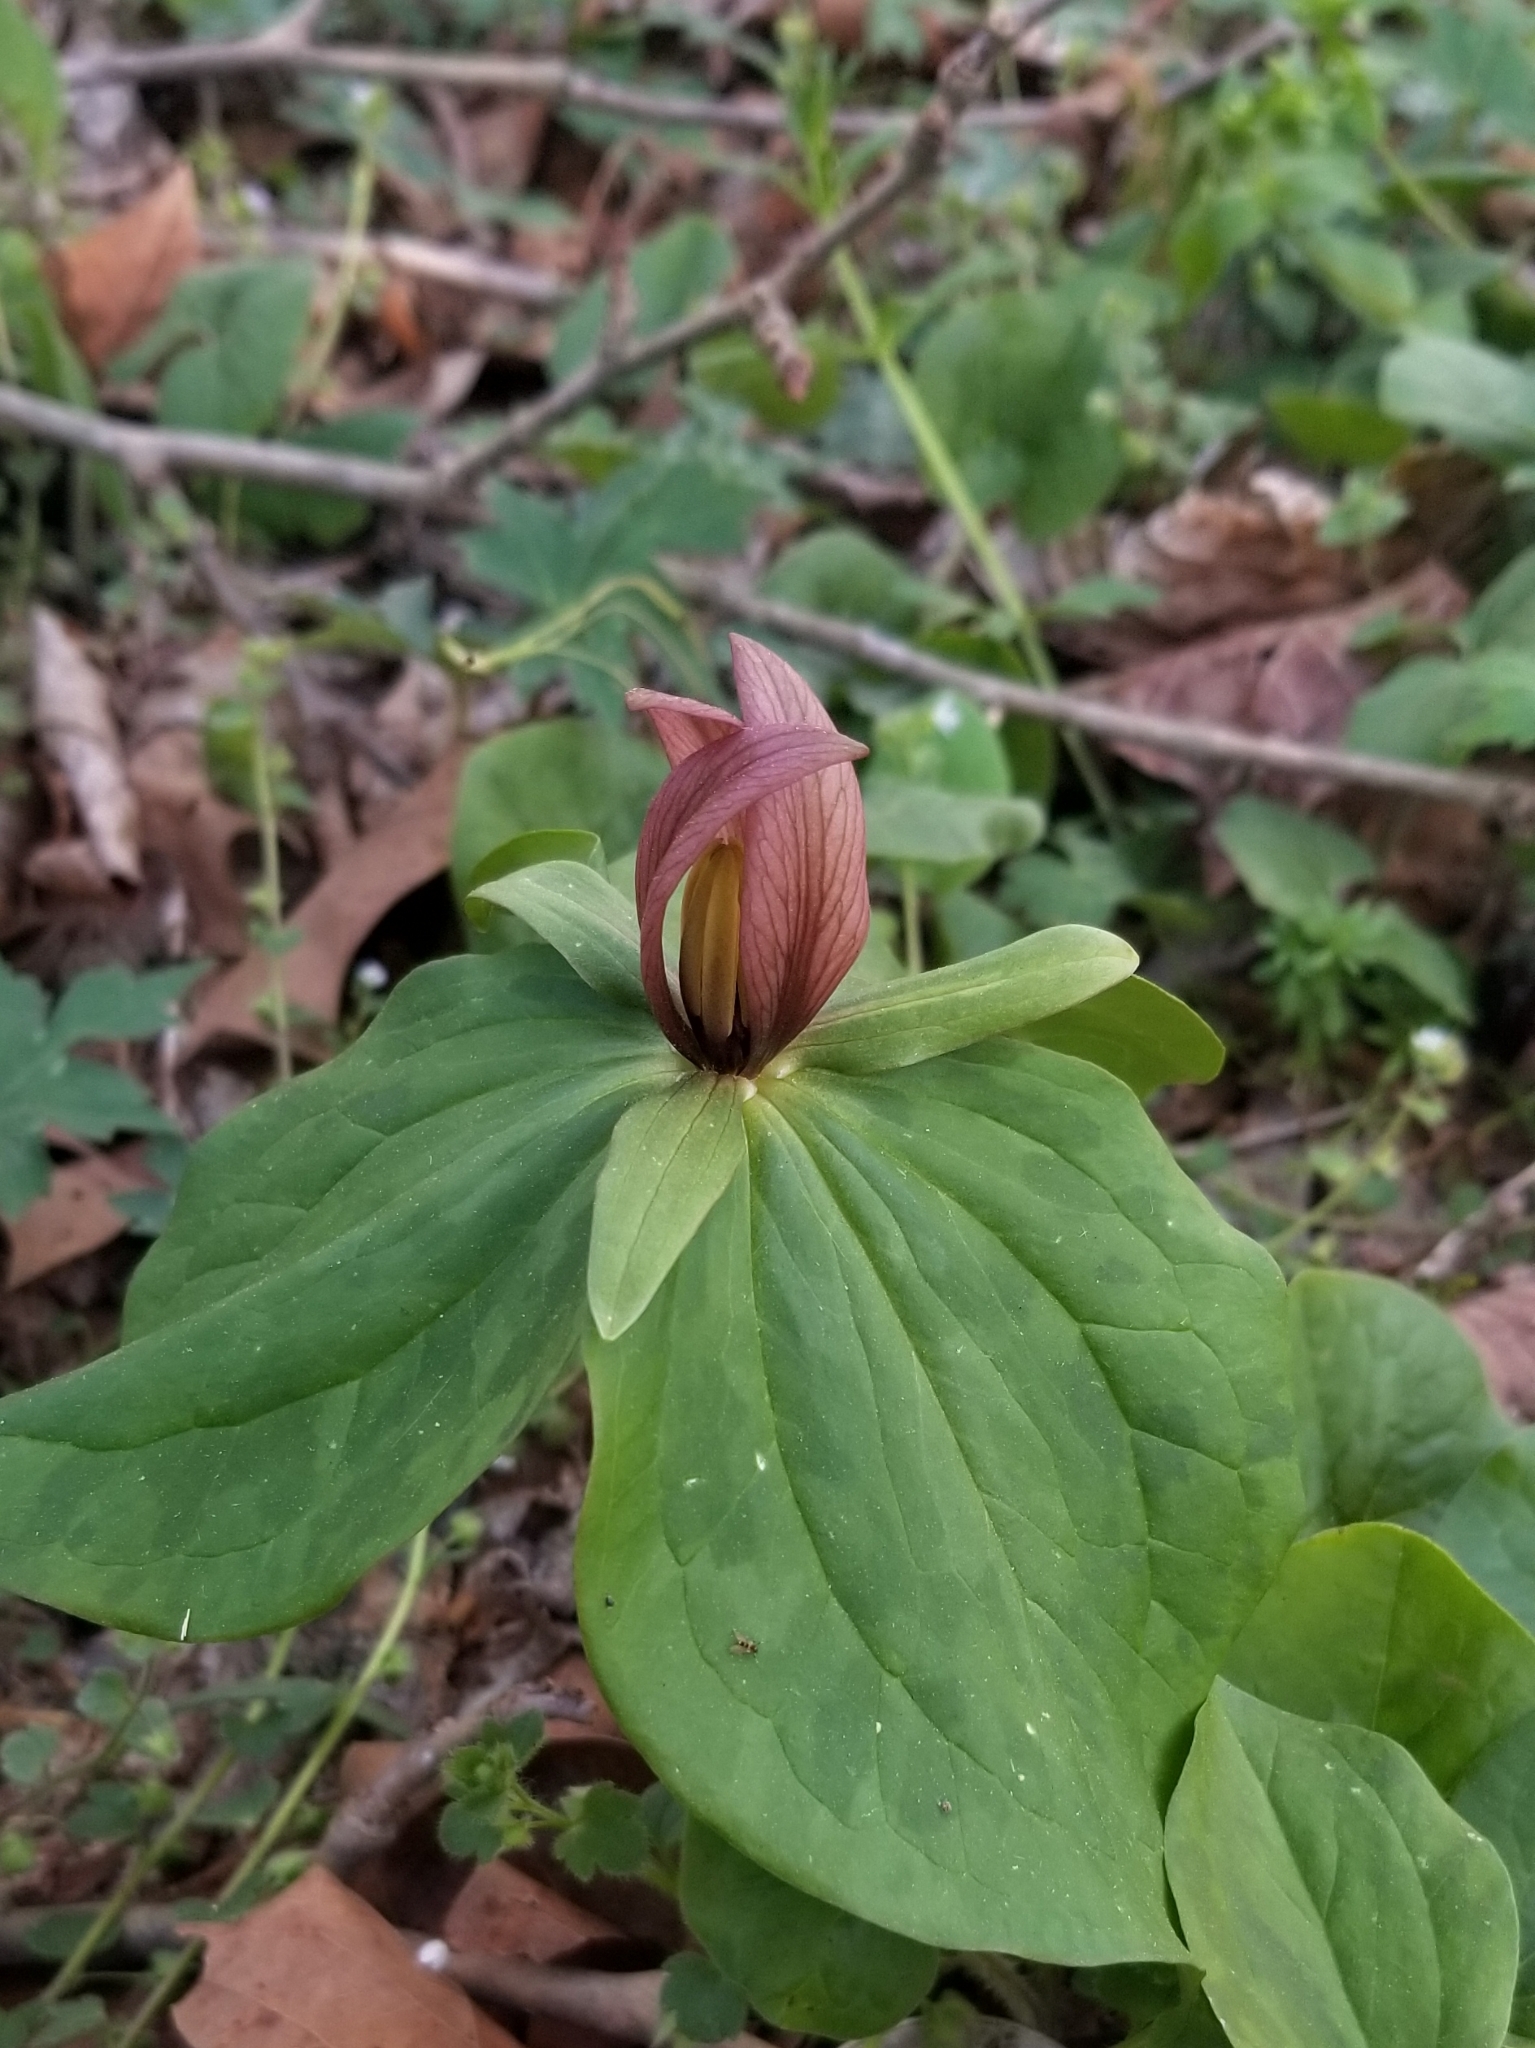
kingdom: Plantae
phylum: Tracheophyta
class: Liliopsida
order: Liliales
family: Melanthiaceae
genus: Trillium
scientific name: Trillium sessile
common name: Sessile trillium
